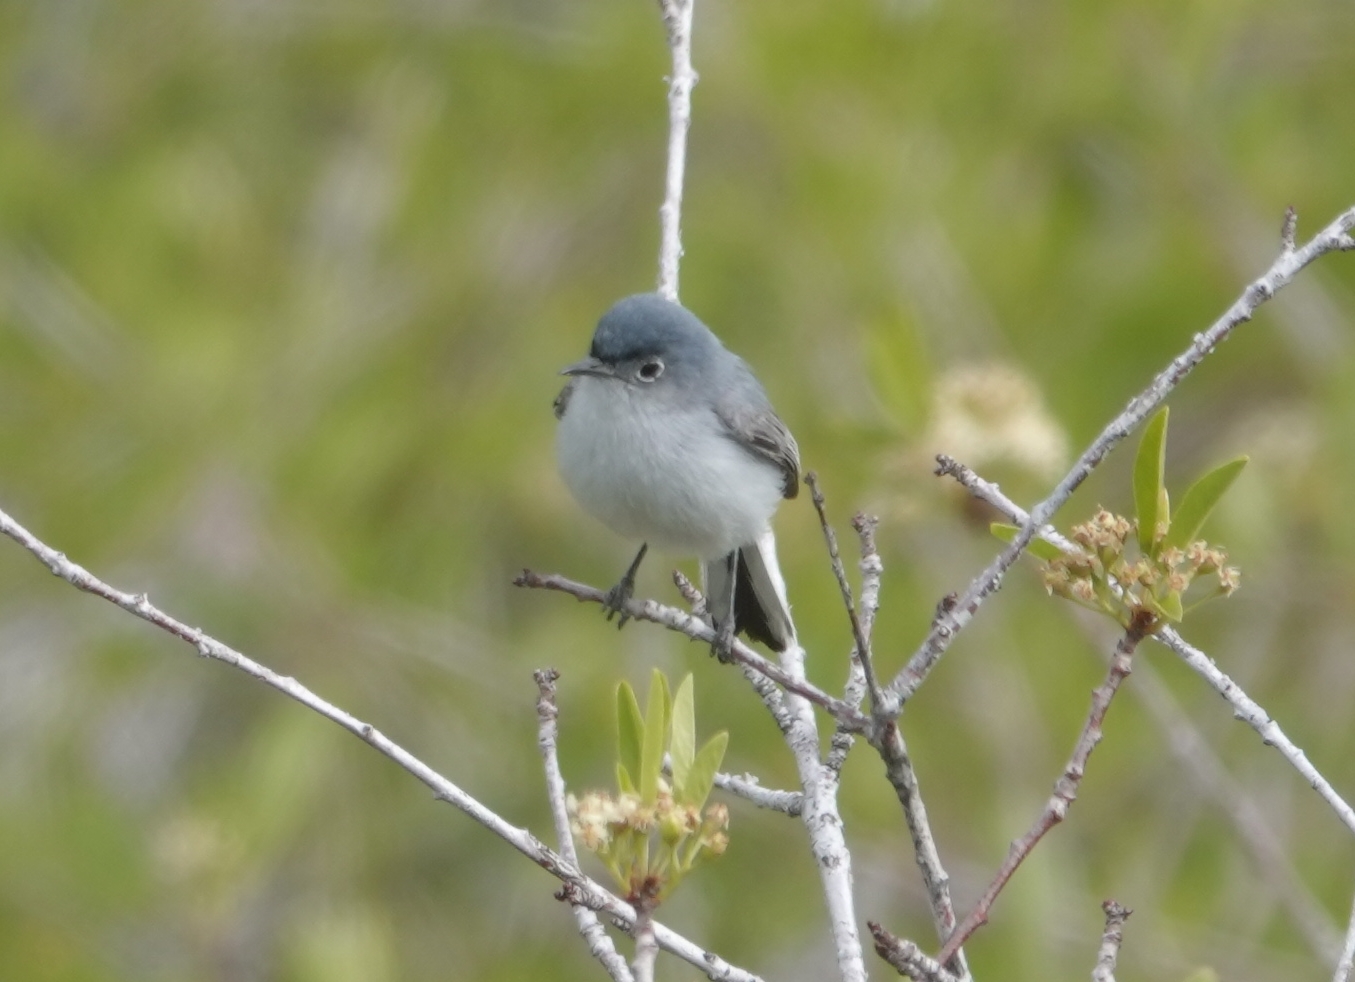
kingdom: Animalia
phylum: Chordata
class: Aves
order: Passeriformes
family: Polioptilidae
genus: Polioptila
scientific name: Polioptila caerulea
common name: Blue-gray gnatcatcher
